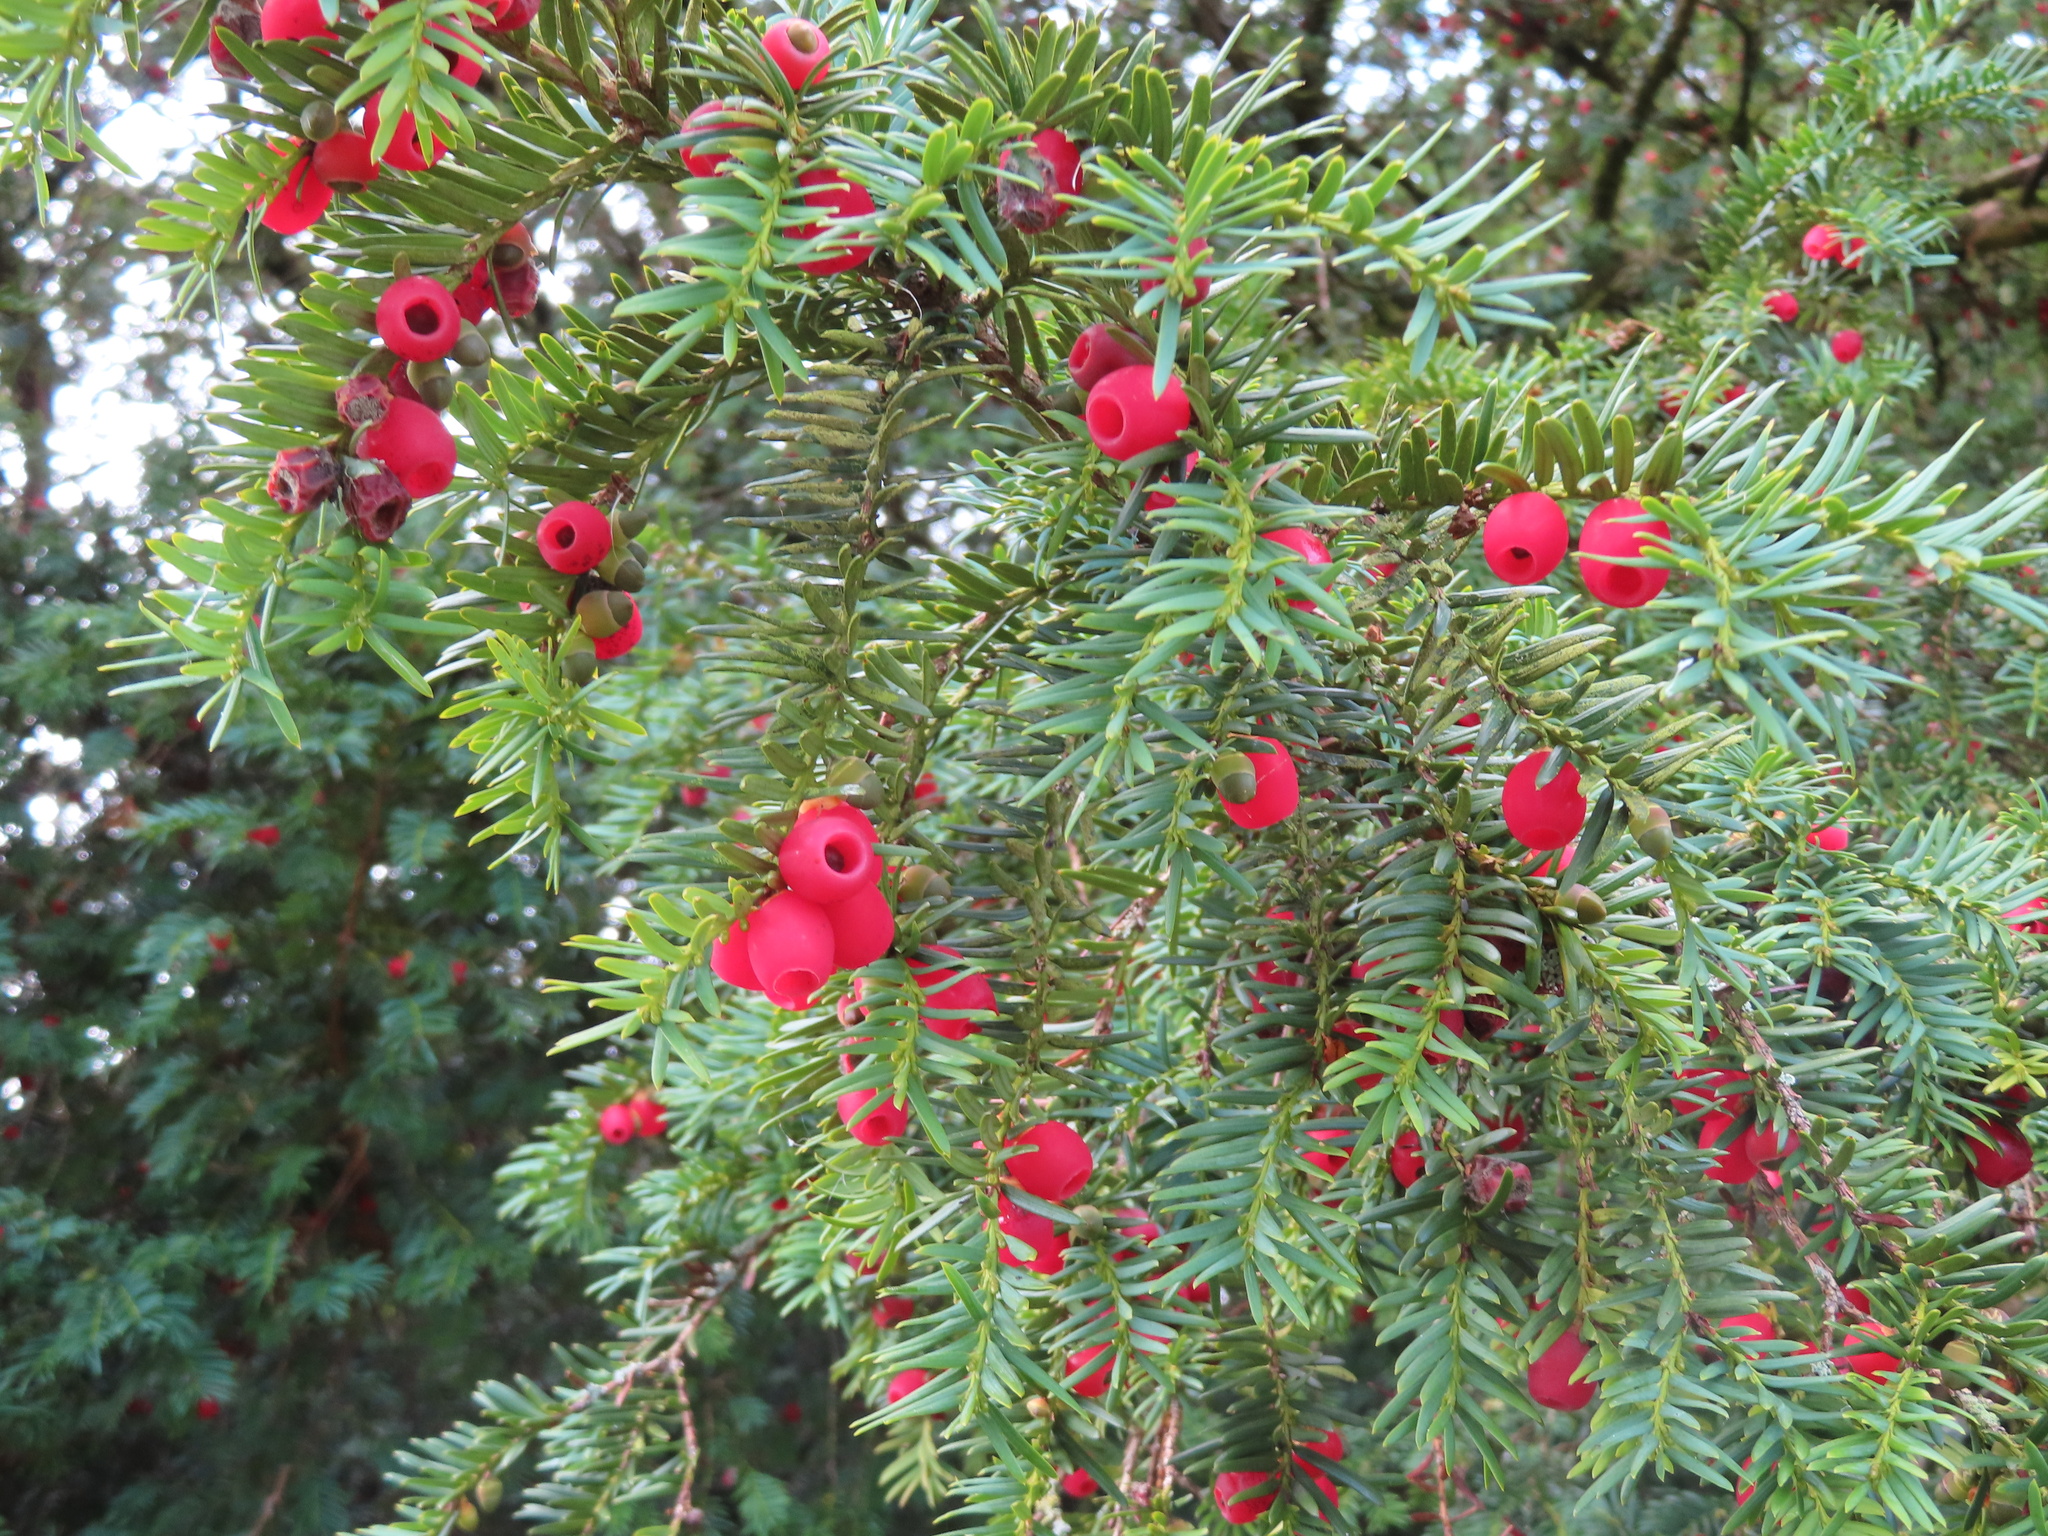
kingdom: Plantae
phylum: Tracheophyta
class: Pinopsida
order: Pinales
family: Taxaceae
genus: Taxus
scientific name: Taxus baccata
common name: Yew
